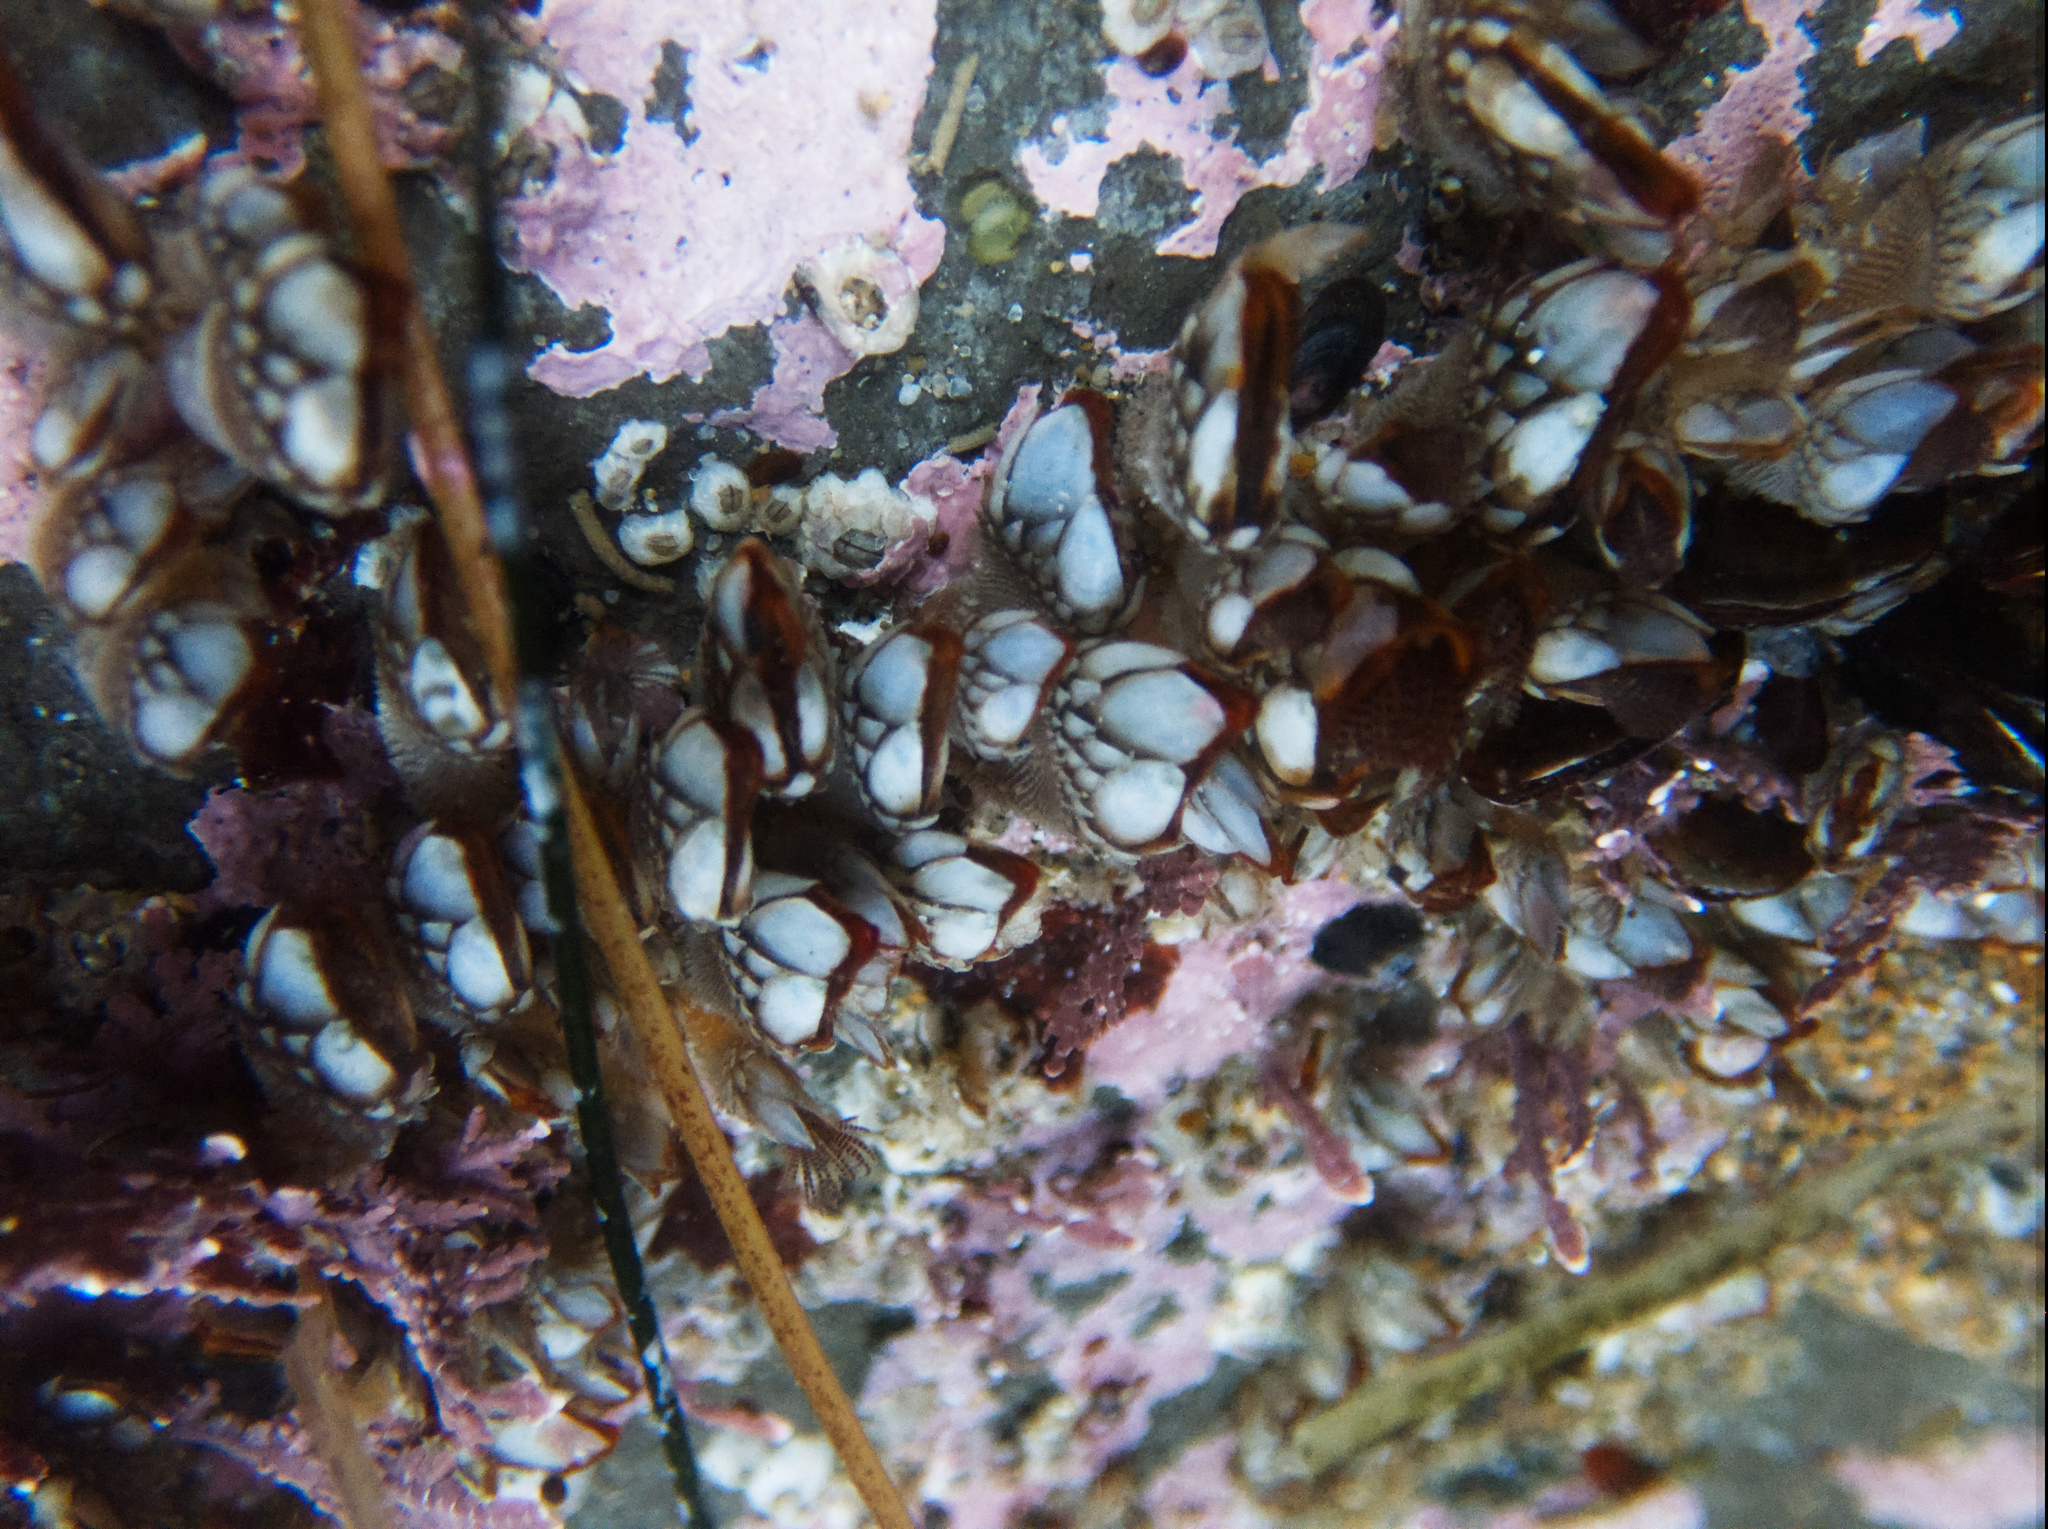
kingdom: Animalia
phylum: Arthropoda
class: Maxillopoda
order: Pedunculata
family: Pollicipedidae
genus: Pollicipes
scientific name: Pollicipes polymerus
